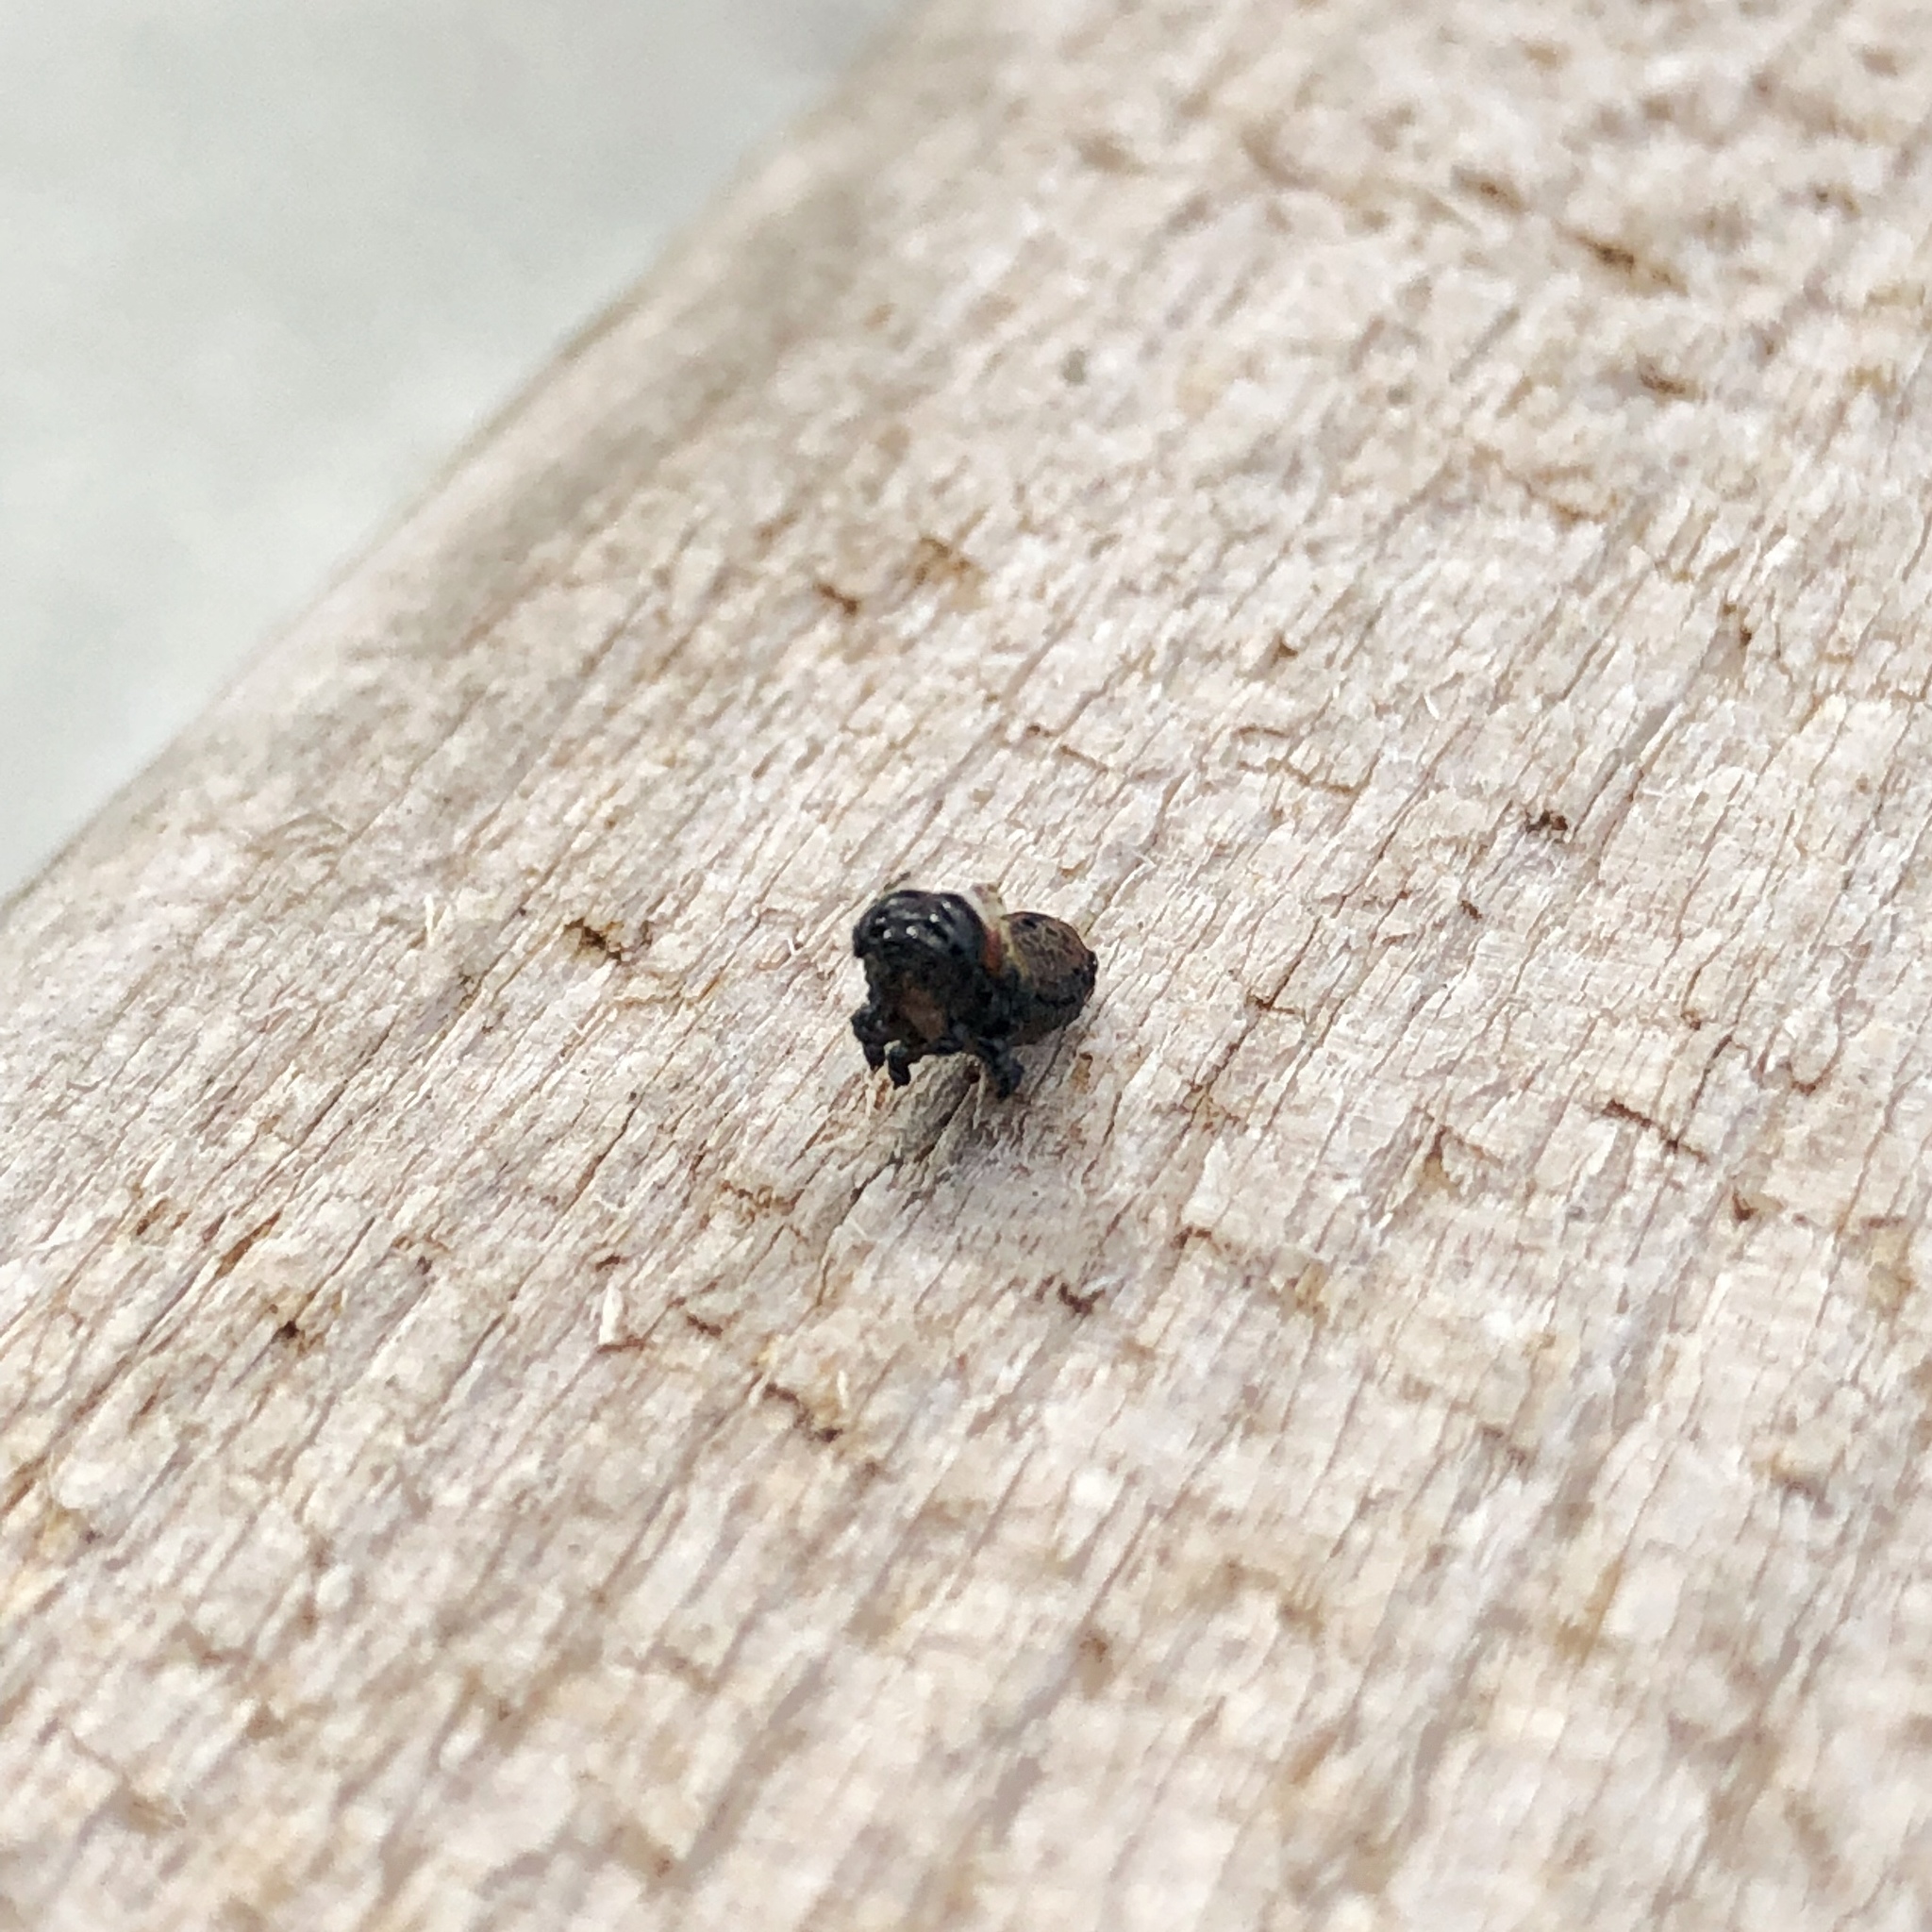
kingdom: Animalia
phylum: Arthropoda
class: Insecta
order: Coleoptera
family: Chrysomelidae
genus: Paropsis
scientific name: Paropsis charybdis
